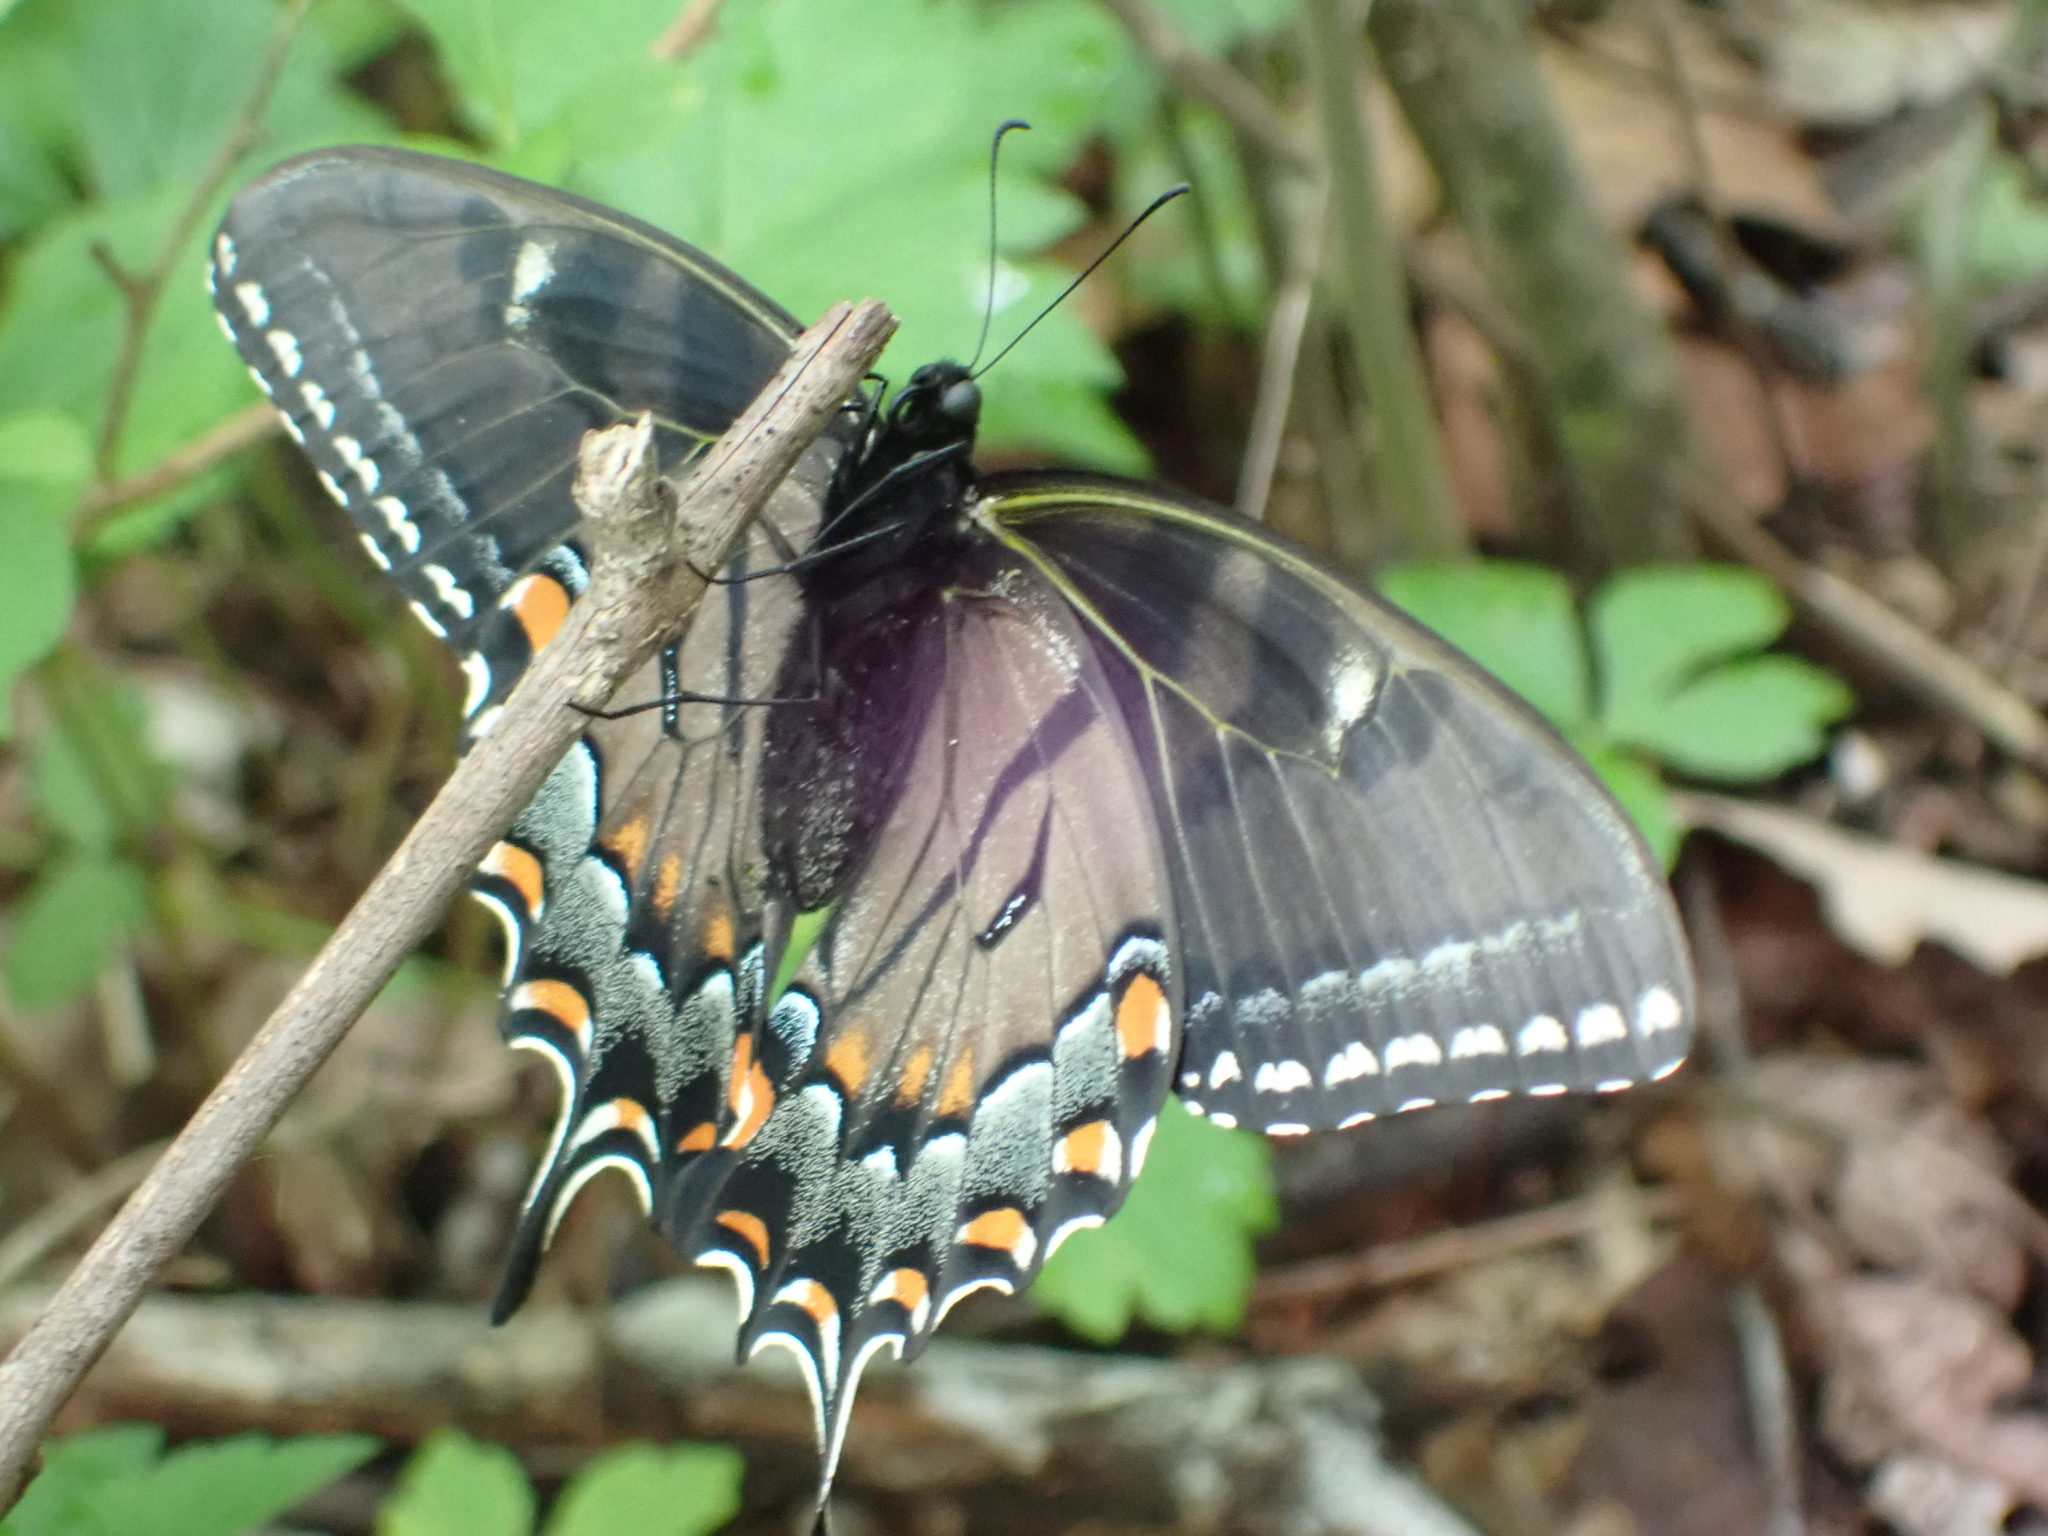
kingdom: Animalia
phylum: Arthropoda
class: Insecta
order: Lepidoptera
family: Papilionidae
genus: Papilio
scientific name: Papilio glaucus
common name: Tiger swallowtail
